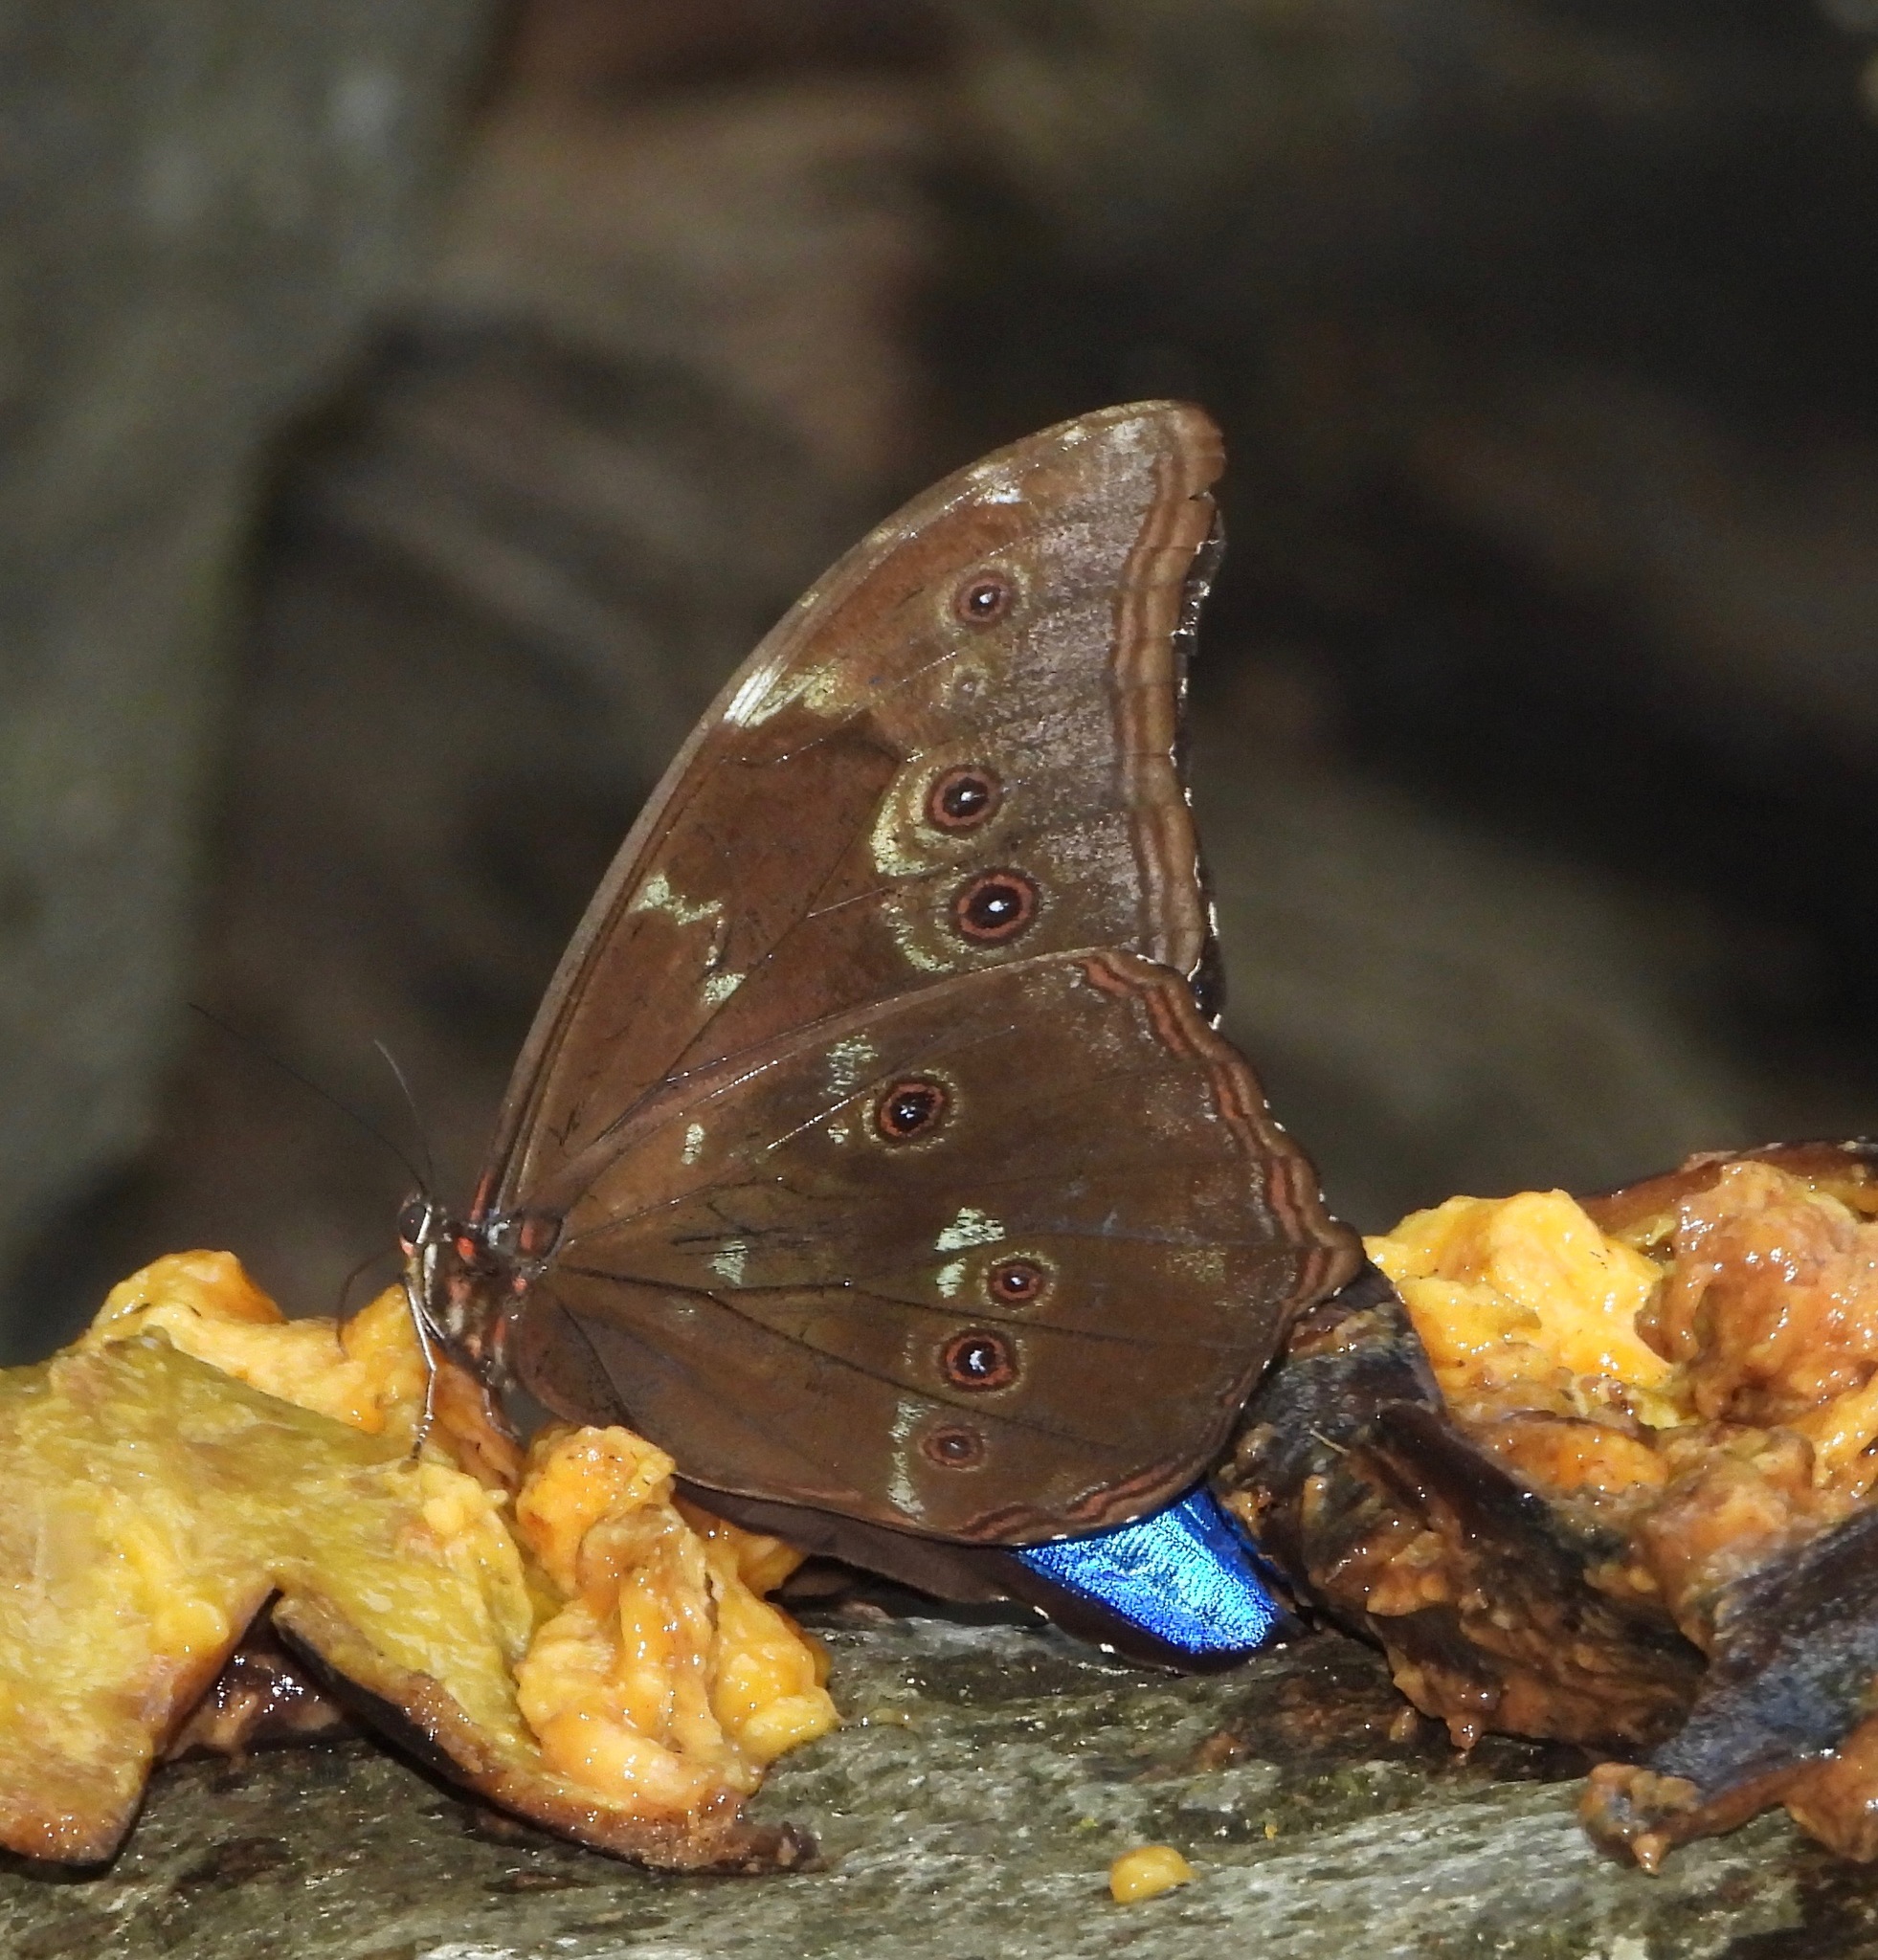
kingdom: Animalia
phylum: Arthropoda
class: Insecta
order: Lepidoptera
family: Nymphalidae
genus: Morpho
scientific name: Morpho menelaus
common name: Menelaus morpho
